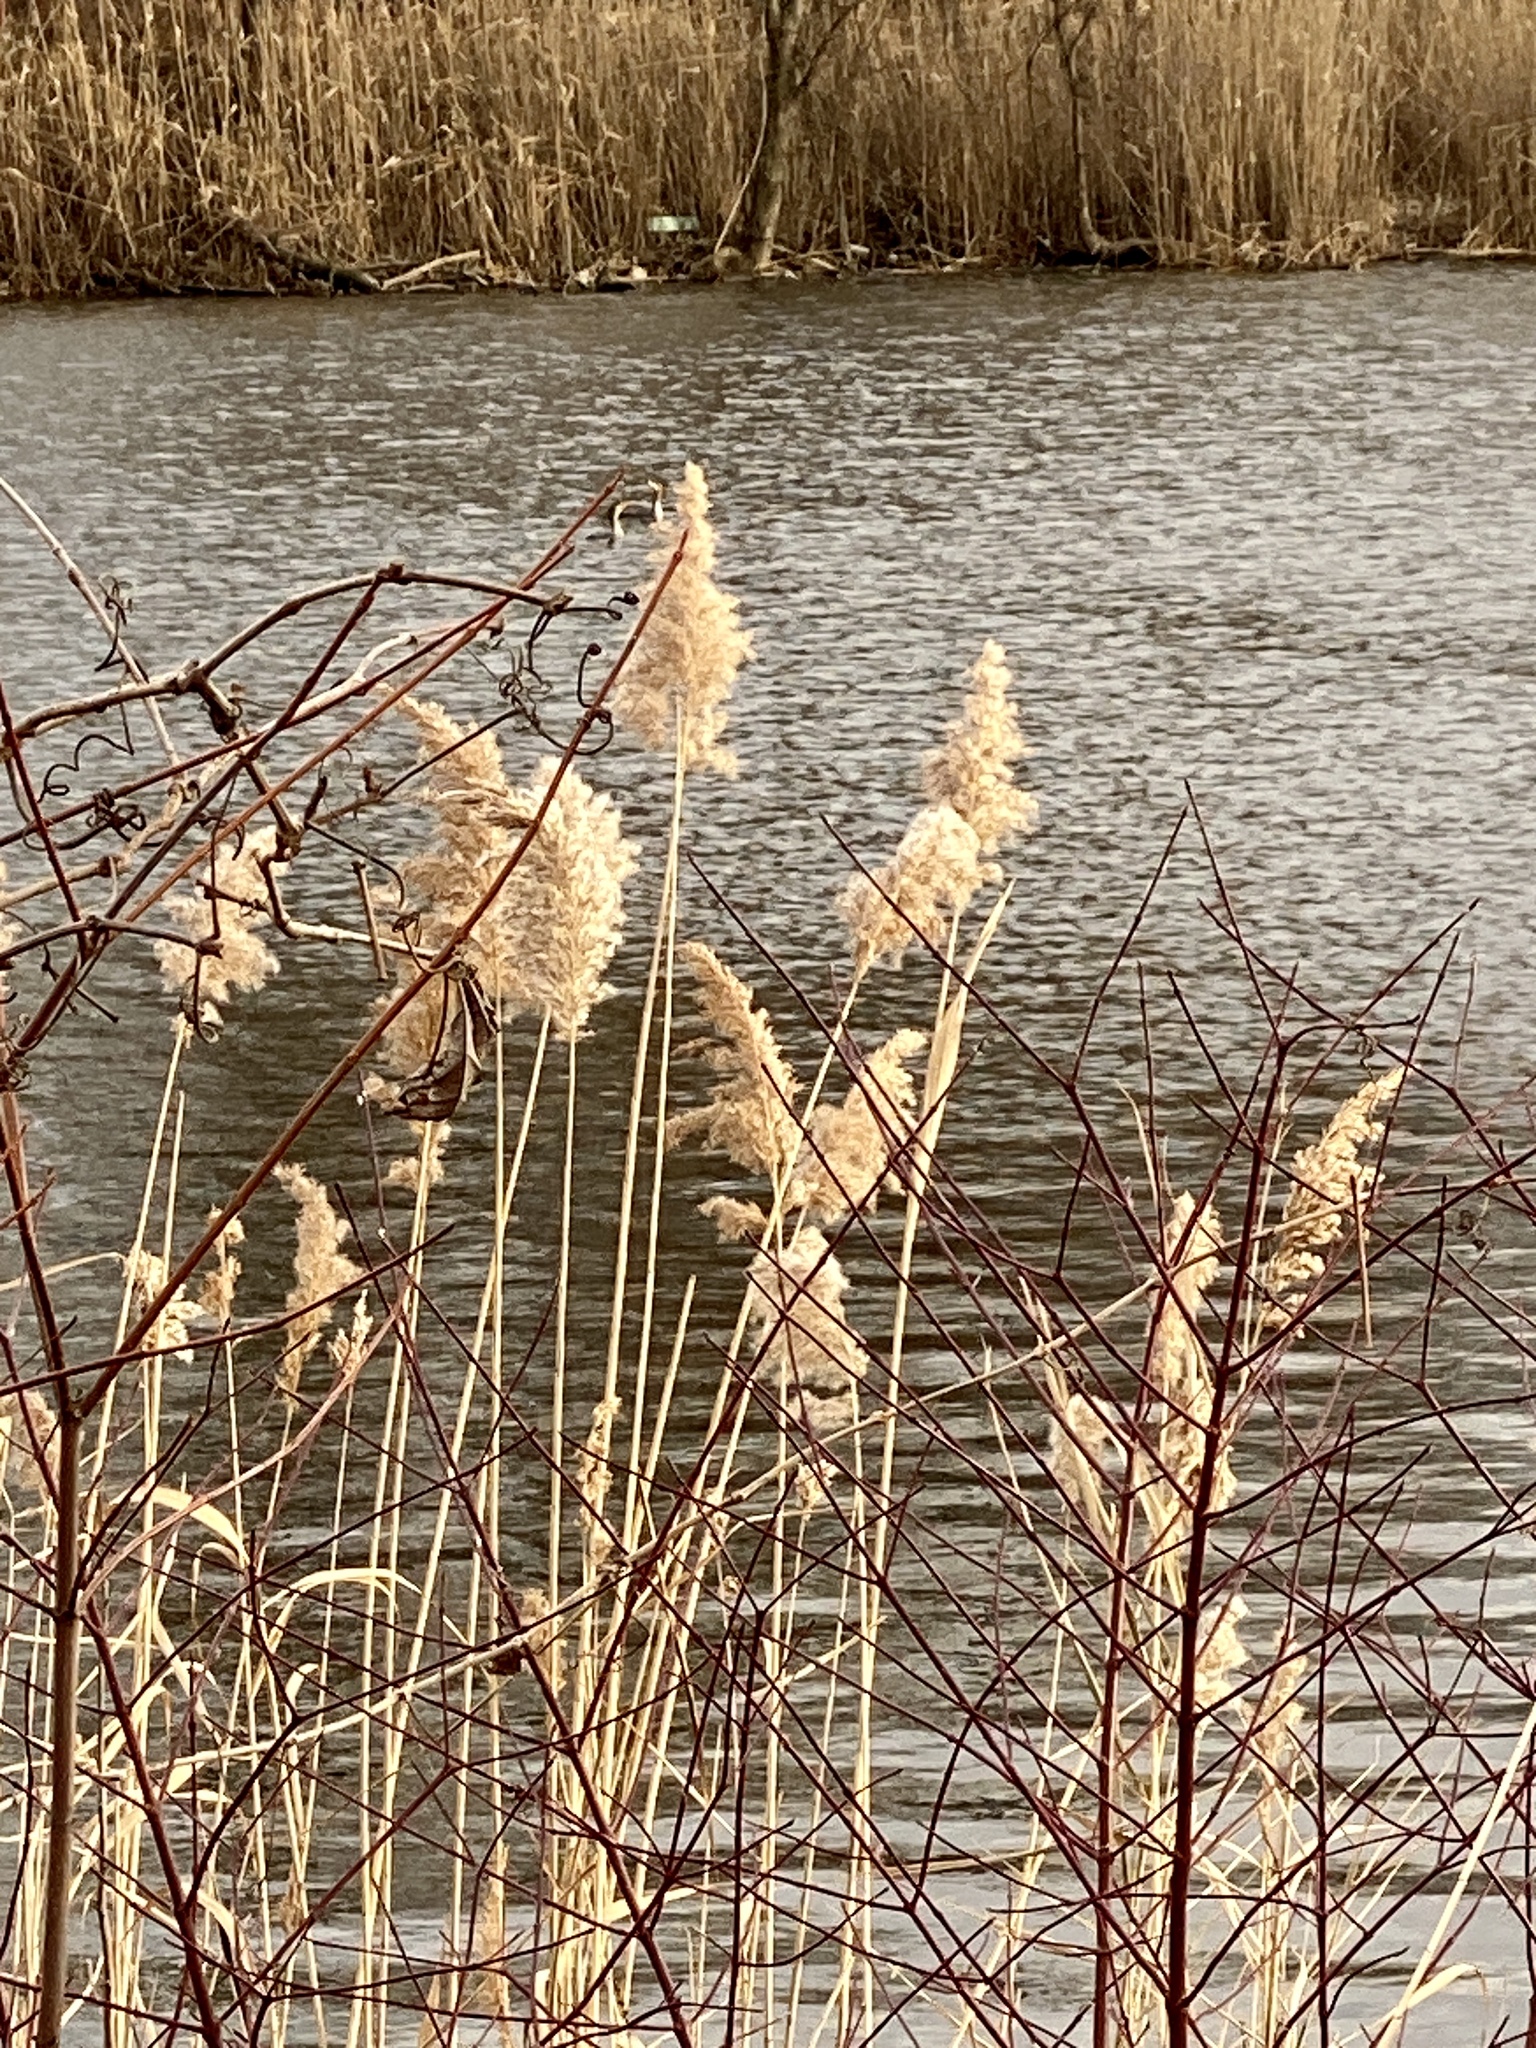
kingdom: Plantae
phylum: Tracheophyta
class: Liliopsida
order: Poales
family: Poaceae
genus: Phragmites
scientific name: Phragmites australis
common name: Common reed
